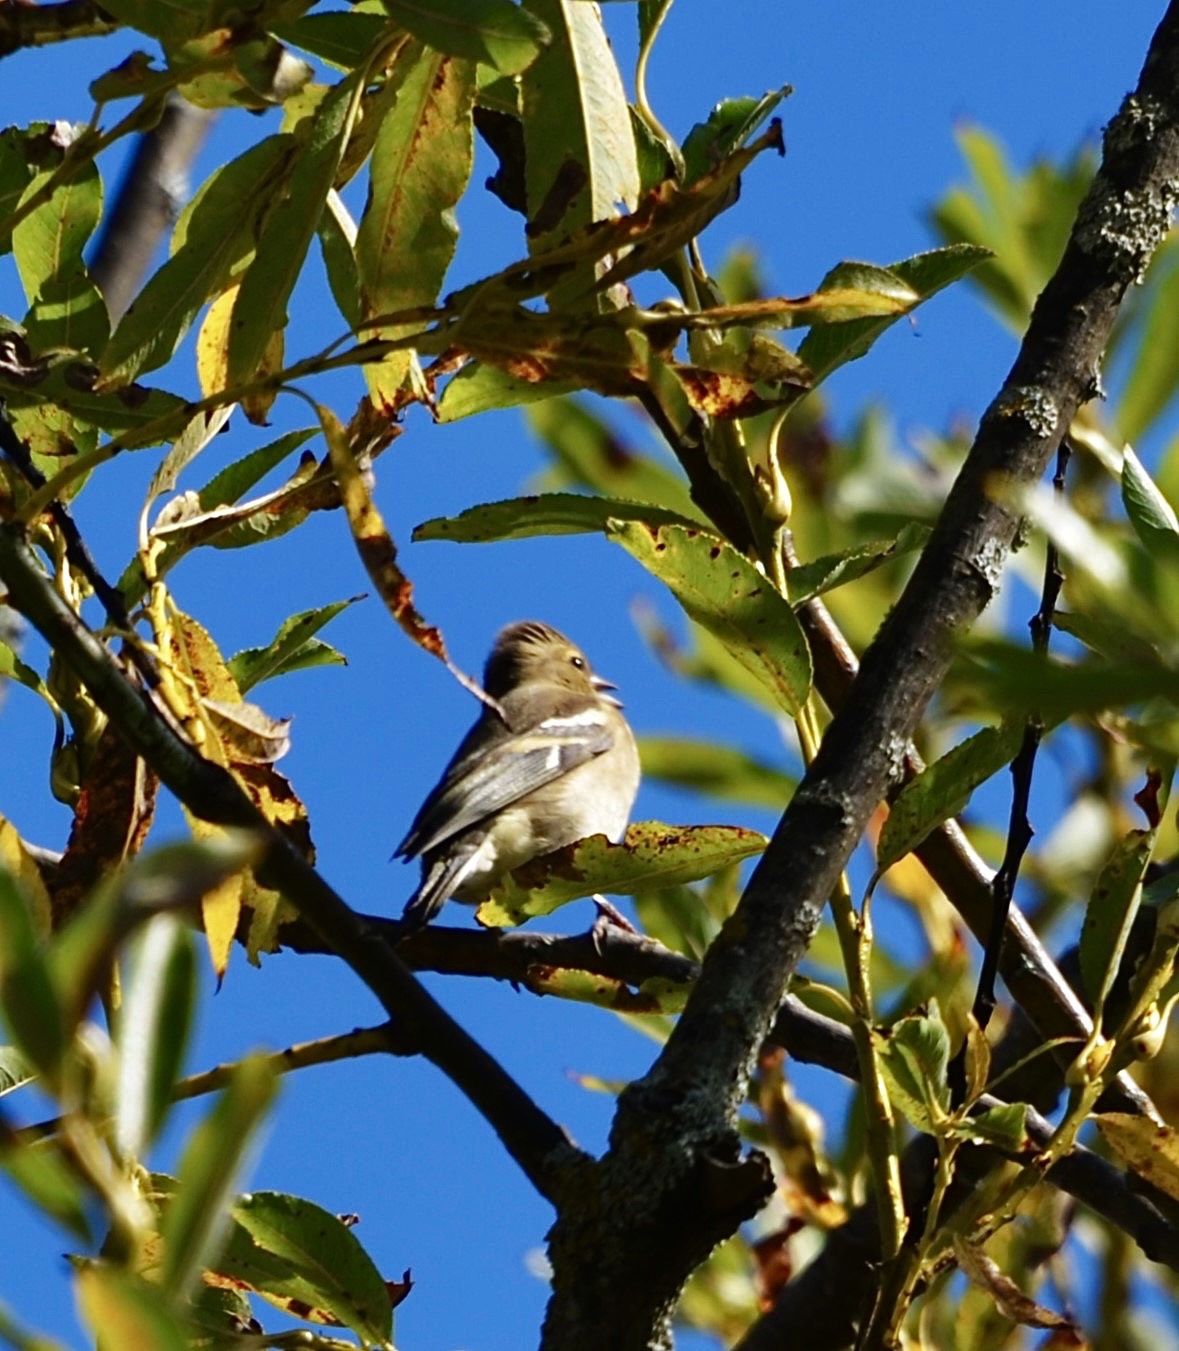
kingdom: Animalia
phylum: Chordata
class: Aves
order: Passeriformes
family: Fringillidae
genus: Fringilla
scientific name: Fringilla coelebs
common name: Common chaffinch
